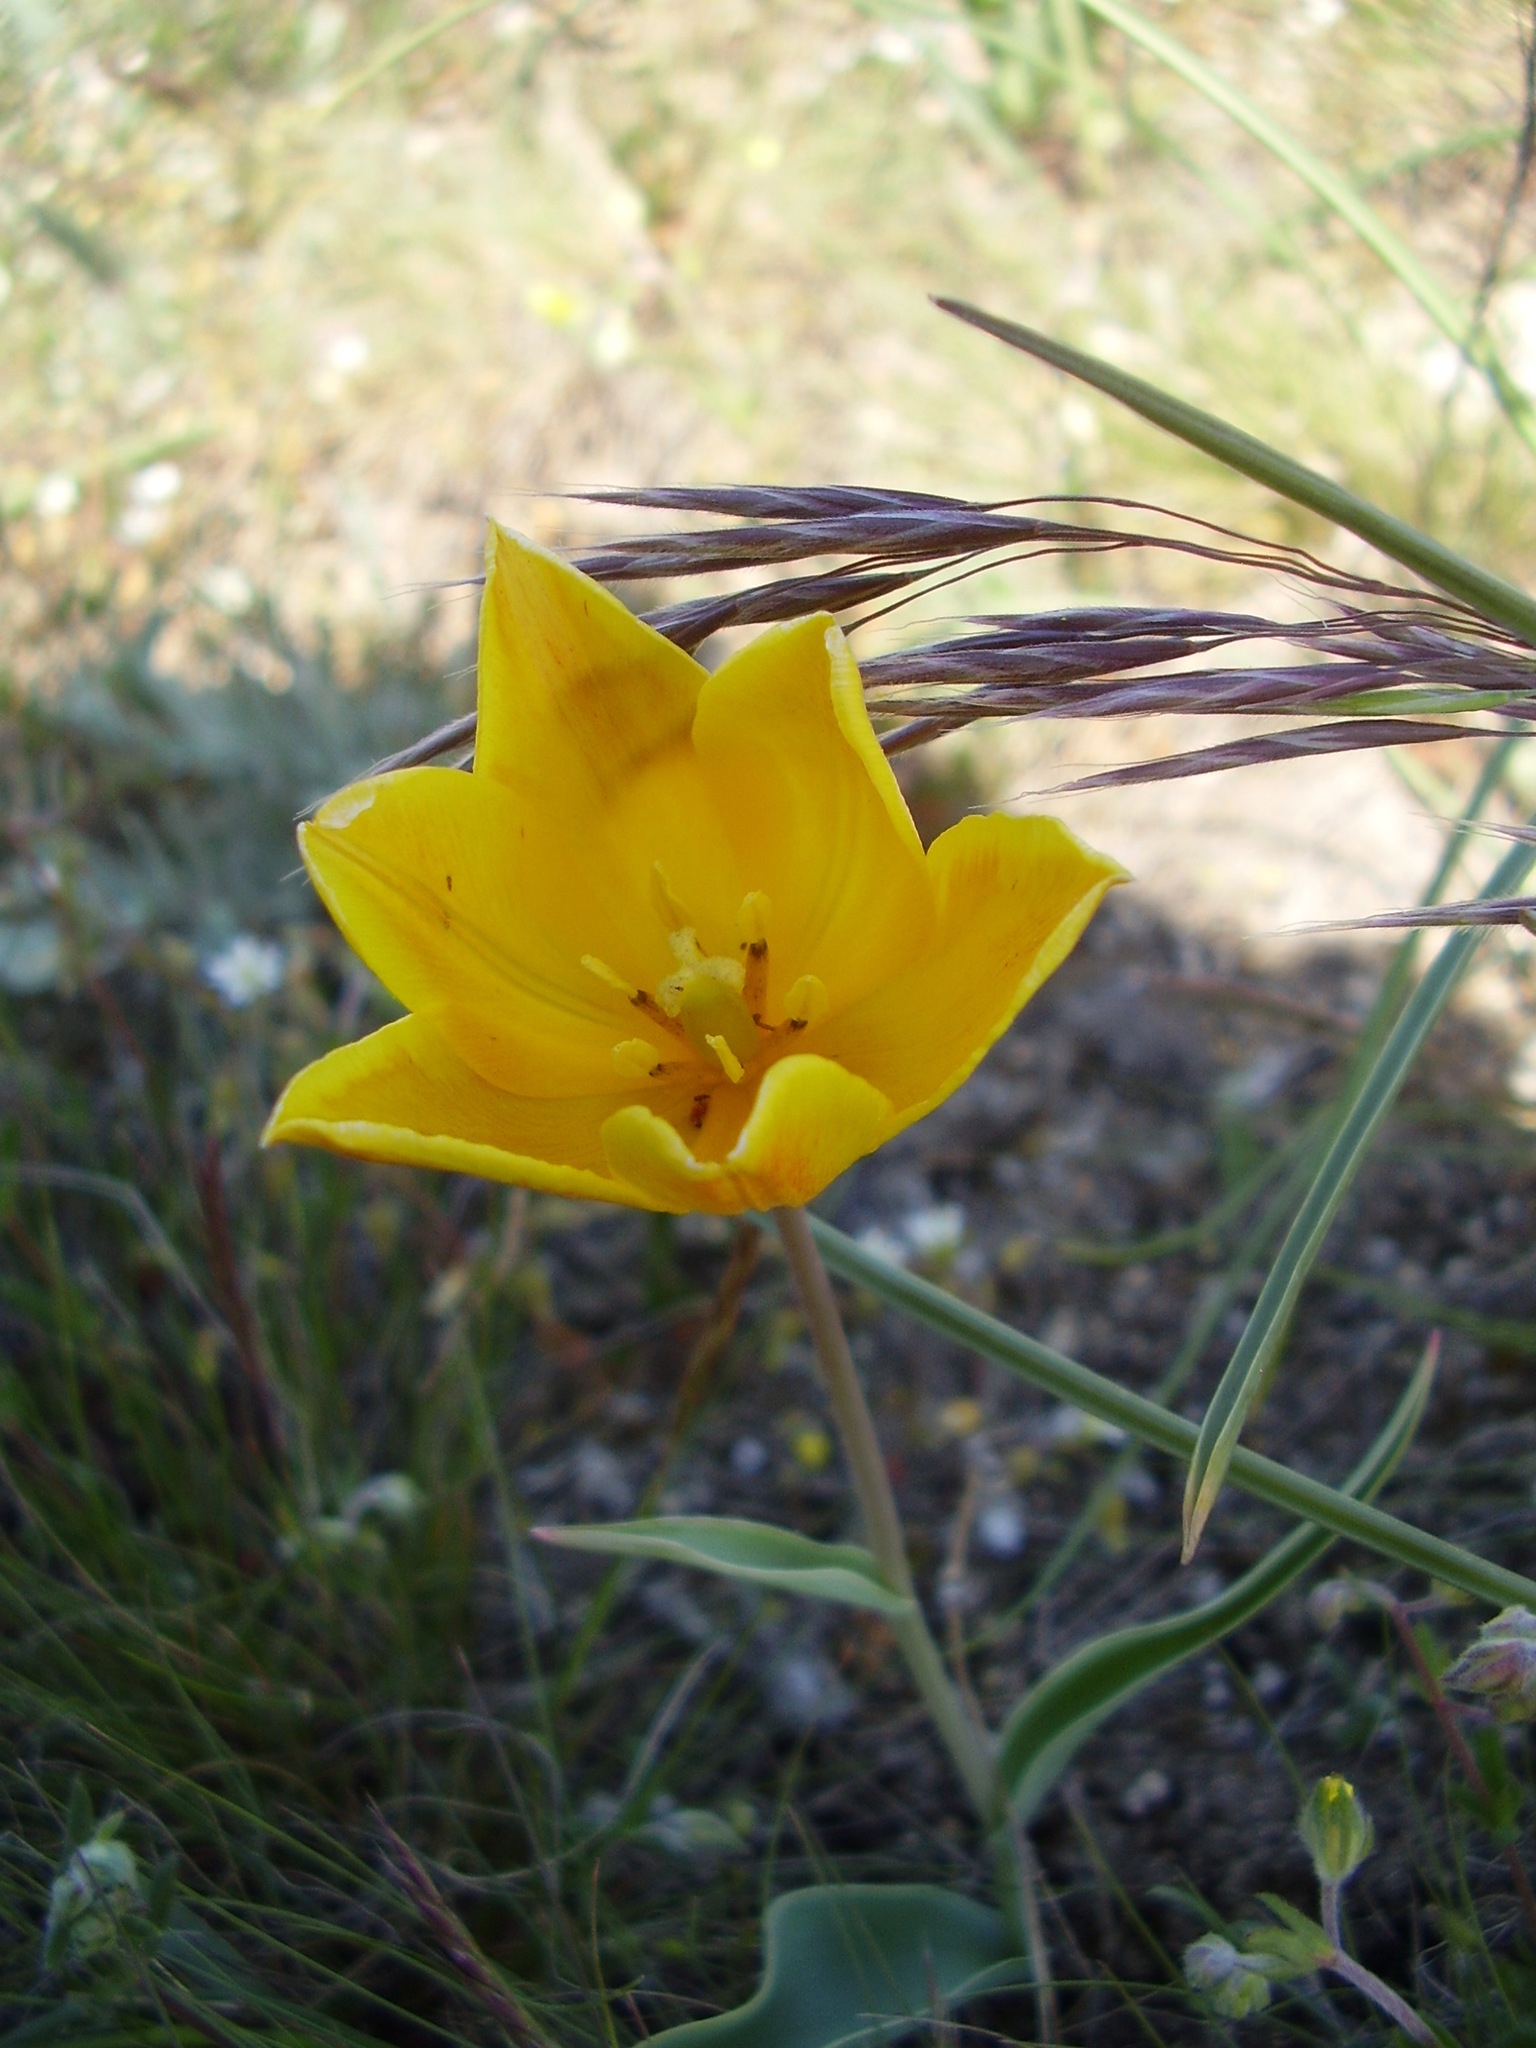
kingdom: Plantae
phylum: Tracheophyta
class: Liliopsida
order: Liliales
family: Liliaceae
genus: Tulipa
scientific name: Tulipa suaveolens
